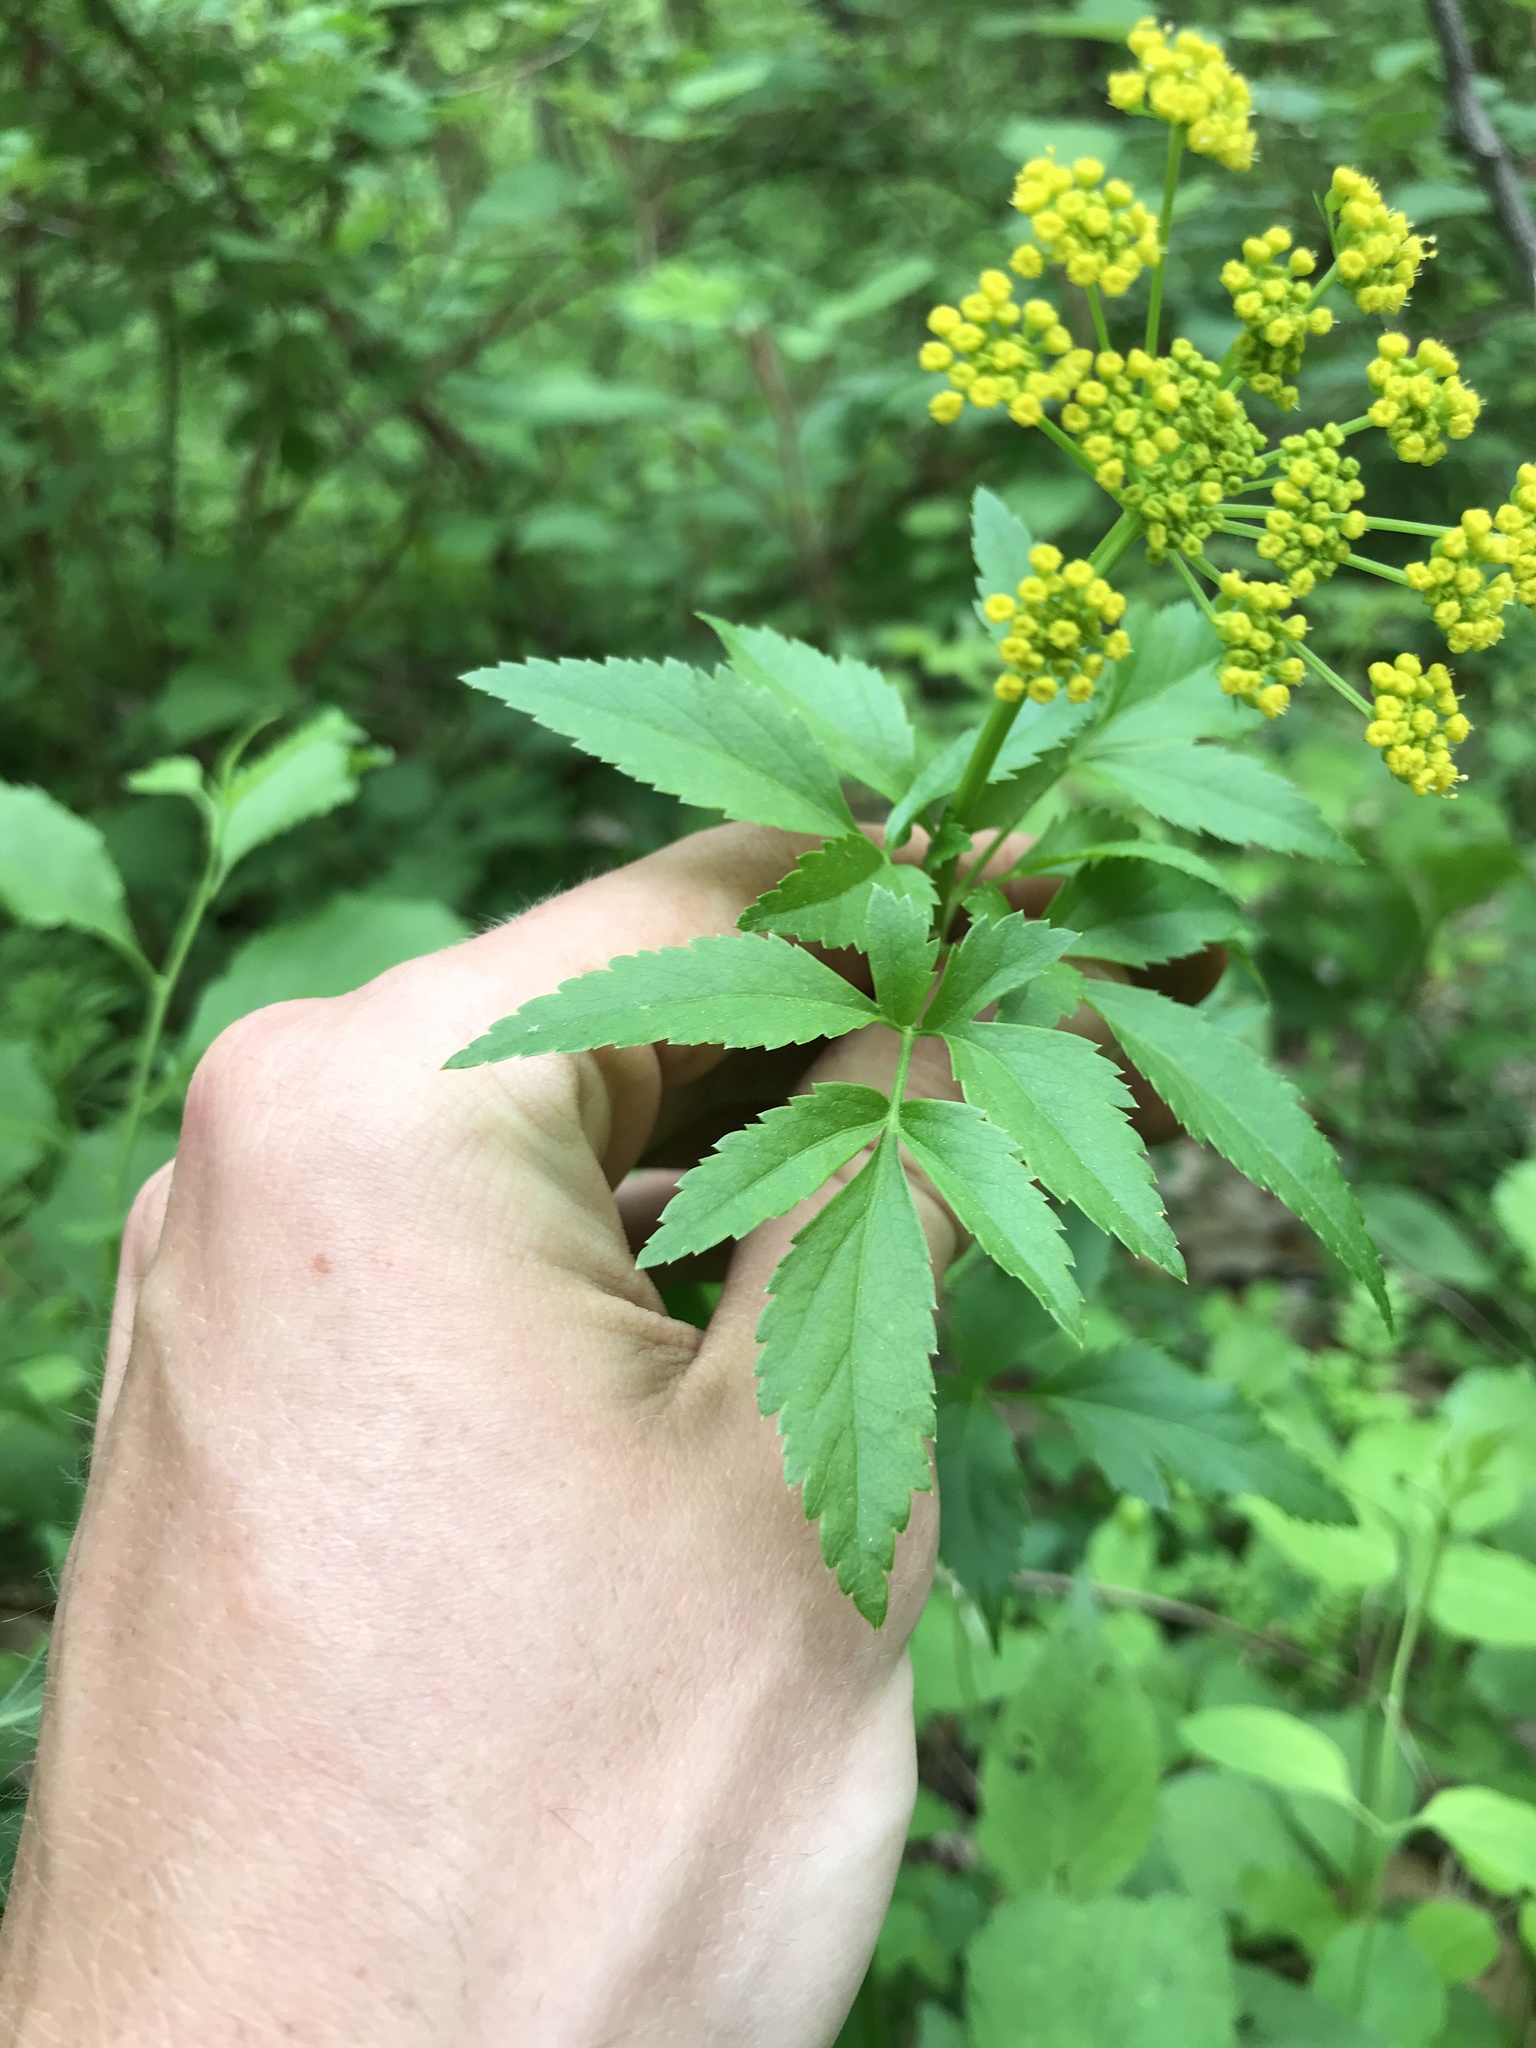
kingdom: Plantae
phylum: Tracheophyta
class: Magnoliopsida
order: Apiales
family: Apiaceae
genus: Zizia
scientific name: Zizia aurea
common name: Golden alexanders
